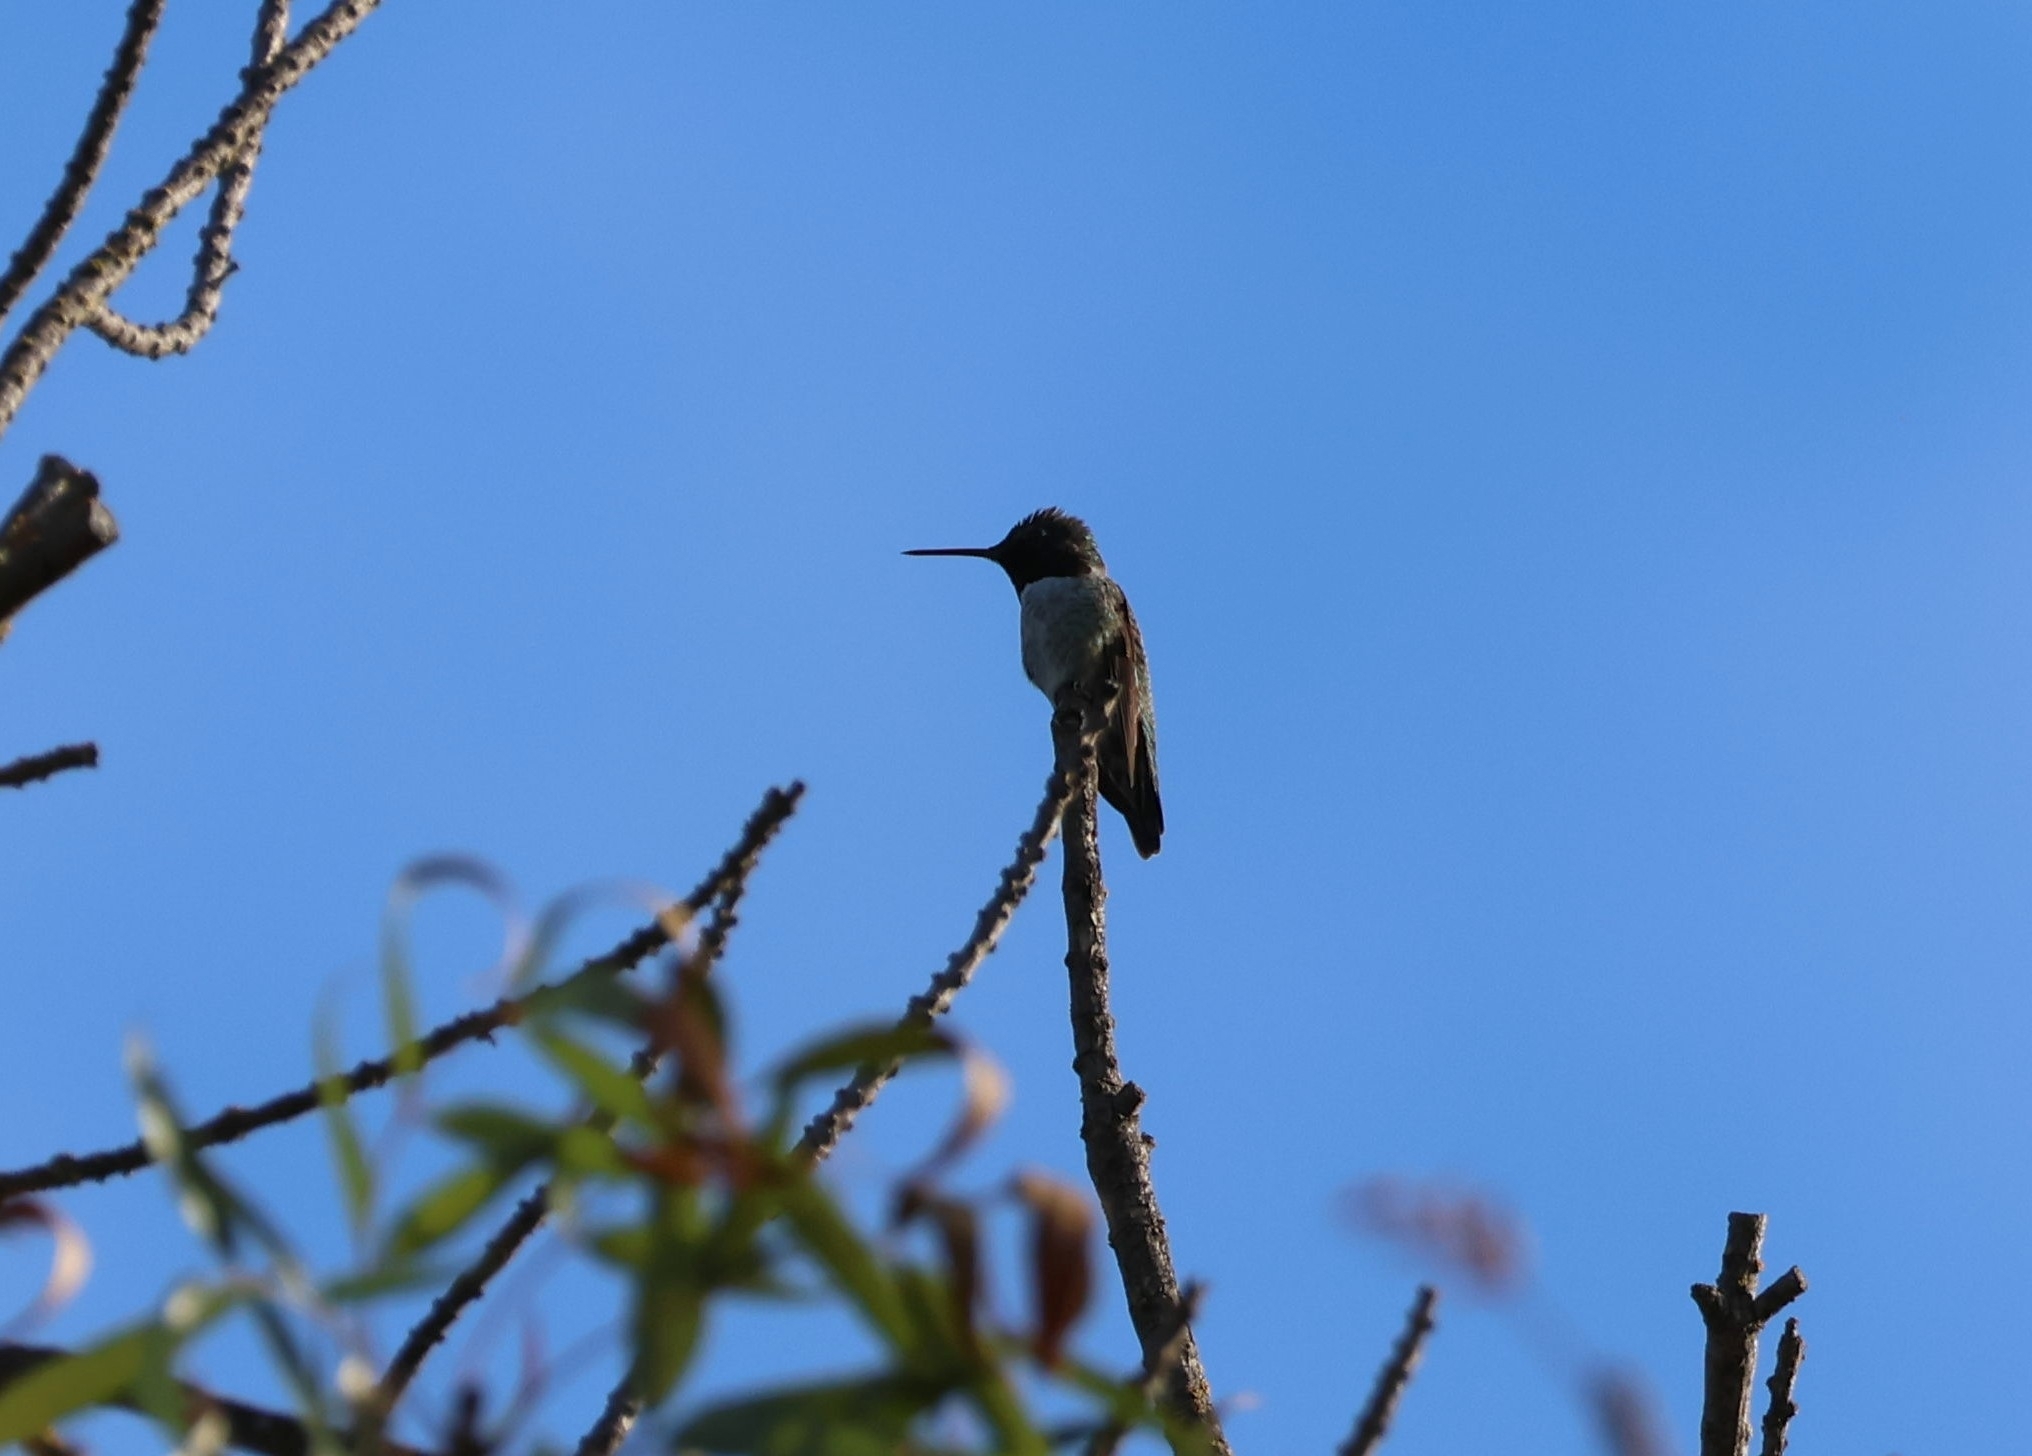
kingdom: Animalia
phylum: Chordata
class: Aves
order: Apodiformes
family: Trochilidae
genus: Calypte
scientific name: Calypte anna
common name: Anna's hummingbird
